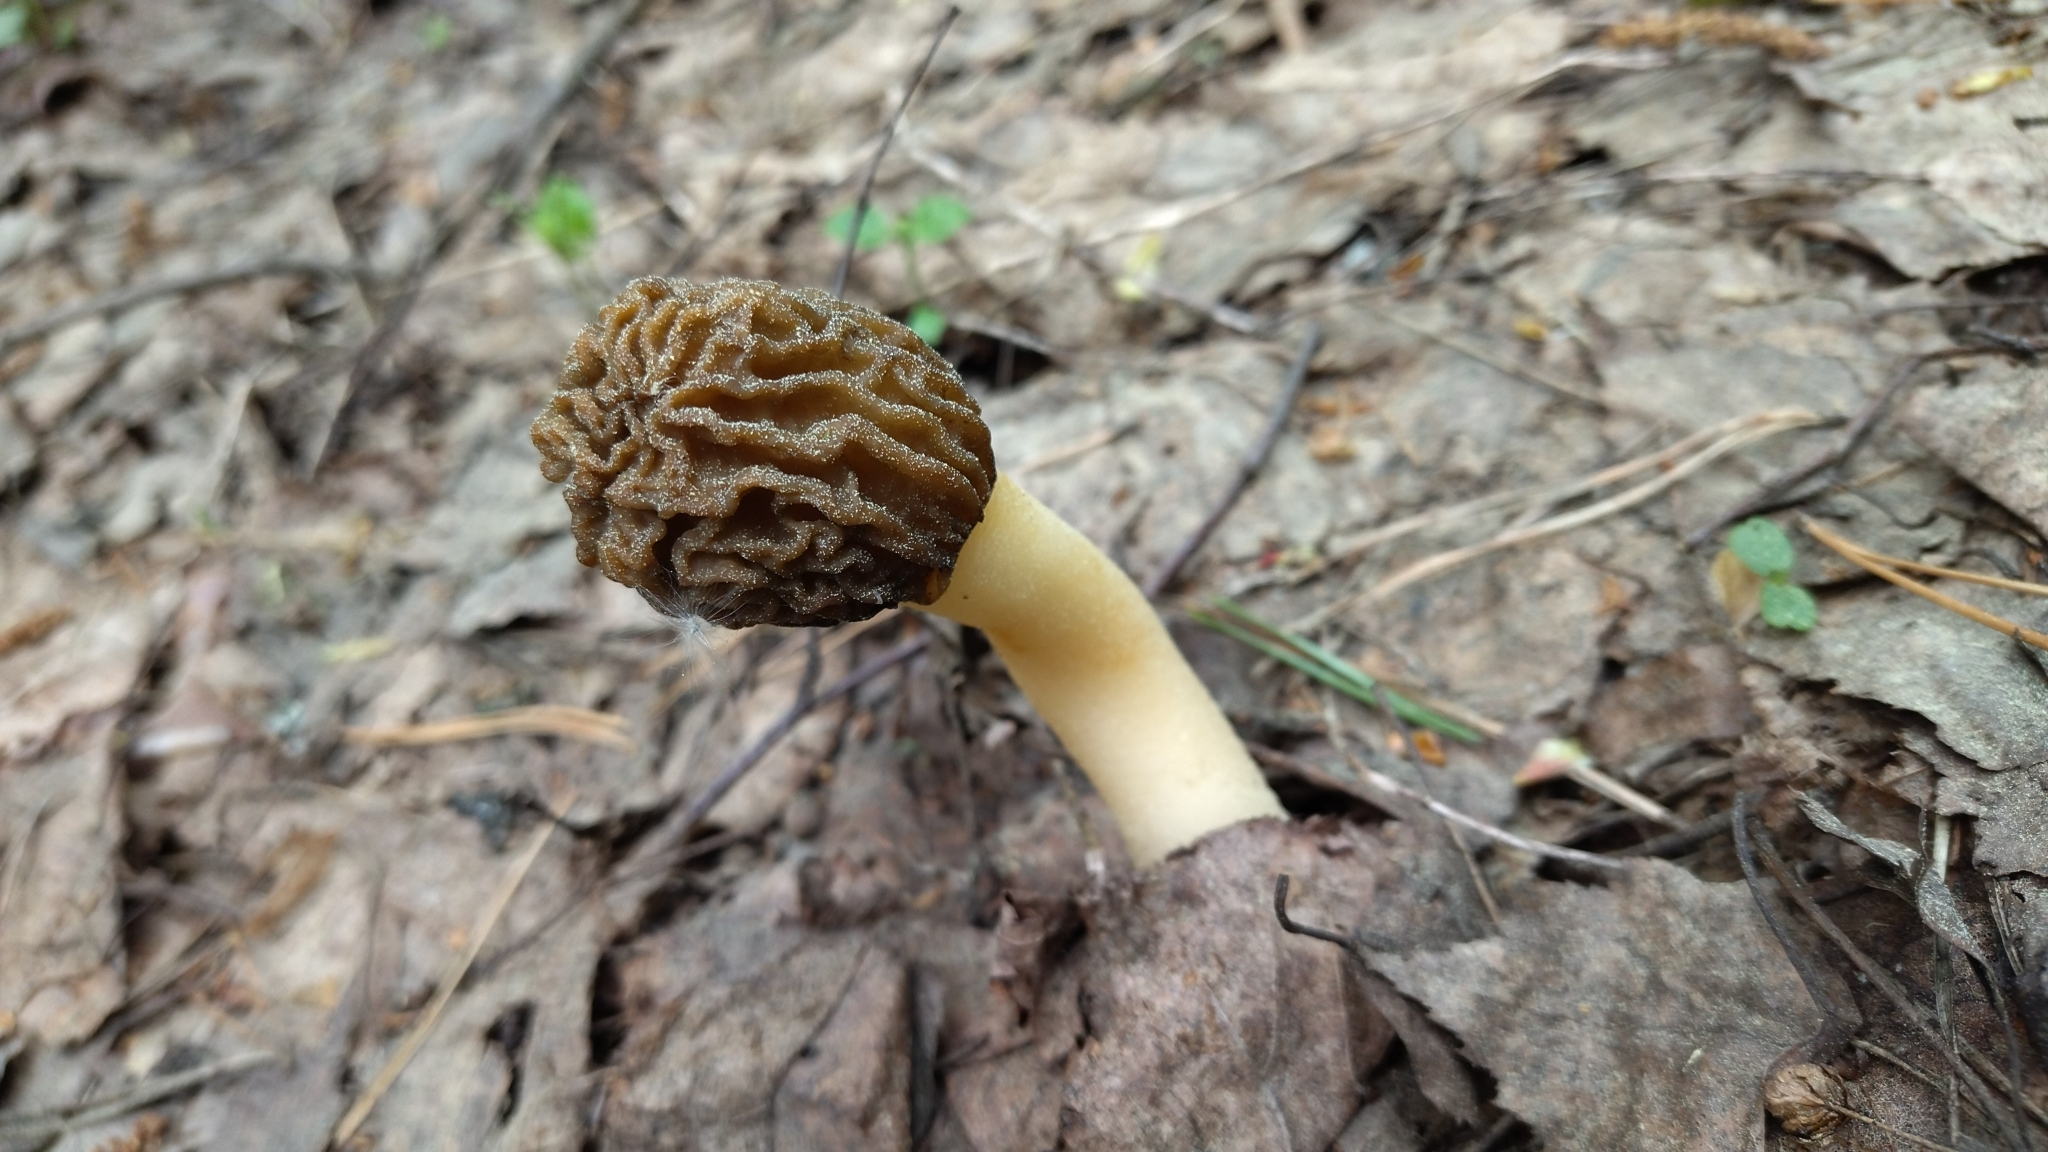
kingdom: Fungi
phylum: Ascomycota
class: Pezizomycetes
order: Pezizales
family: Morchellaceae
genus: Verpa
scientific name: Verpa bohemica
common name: Wrinkled thimble morel
